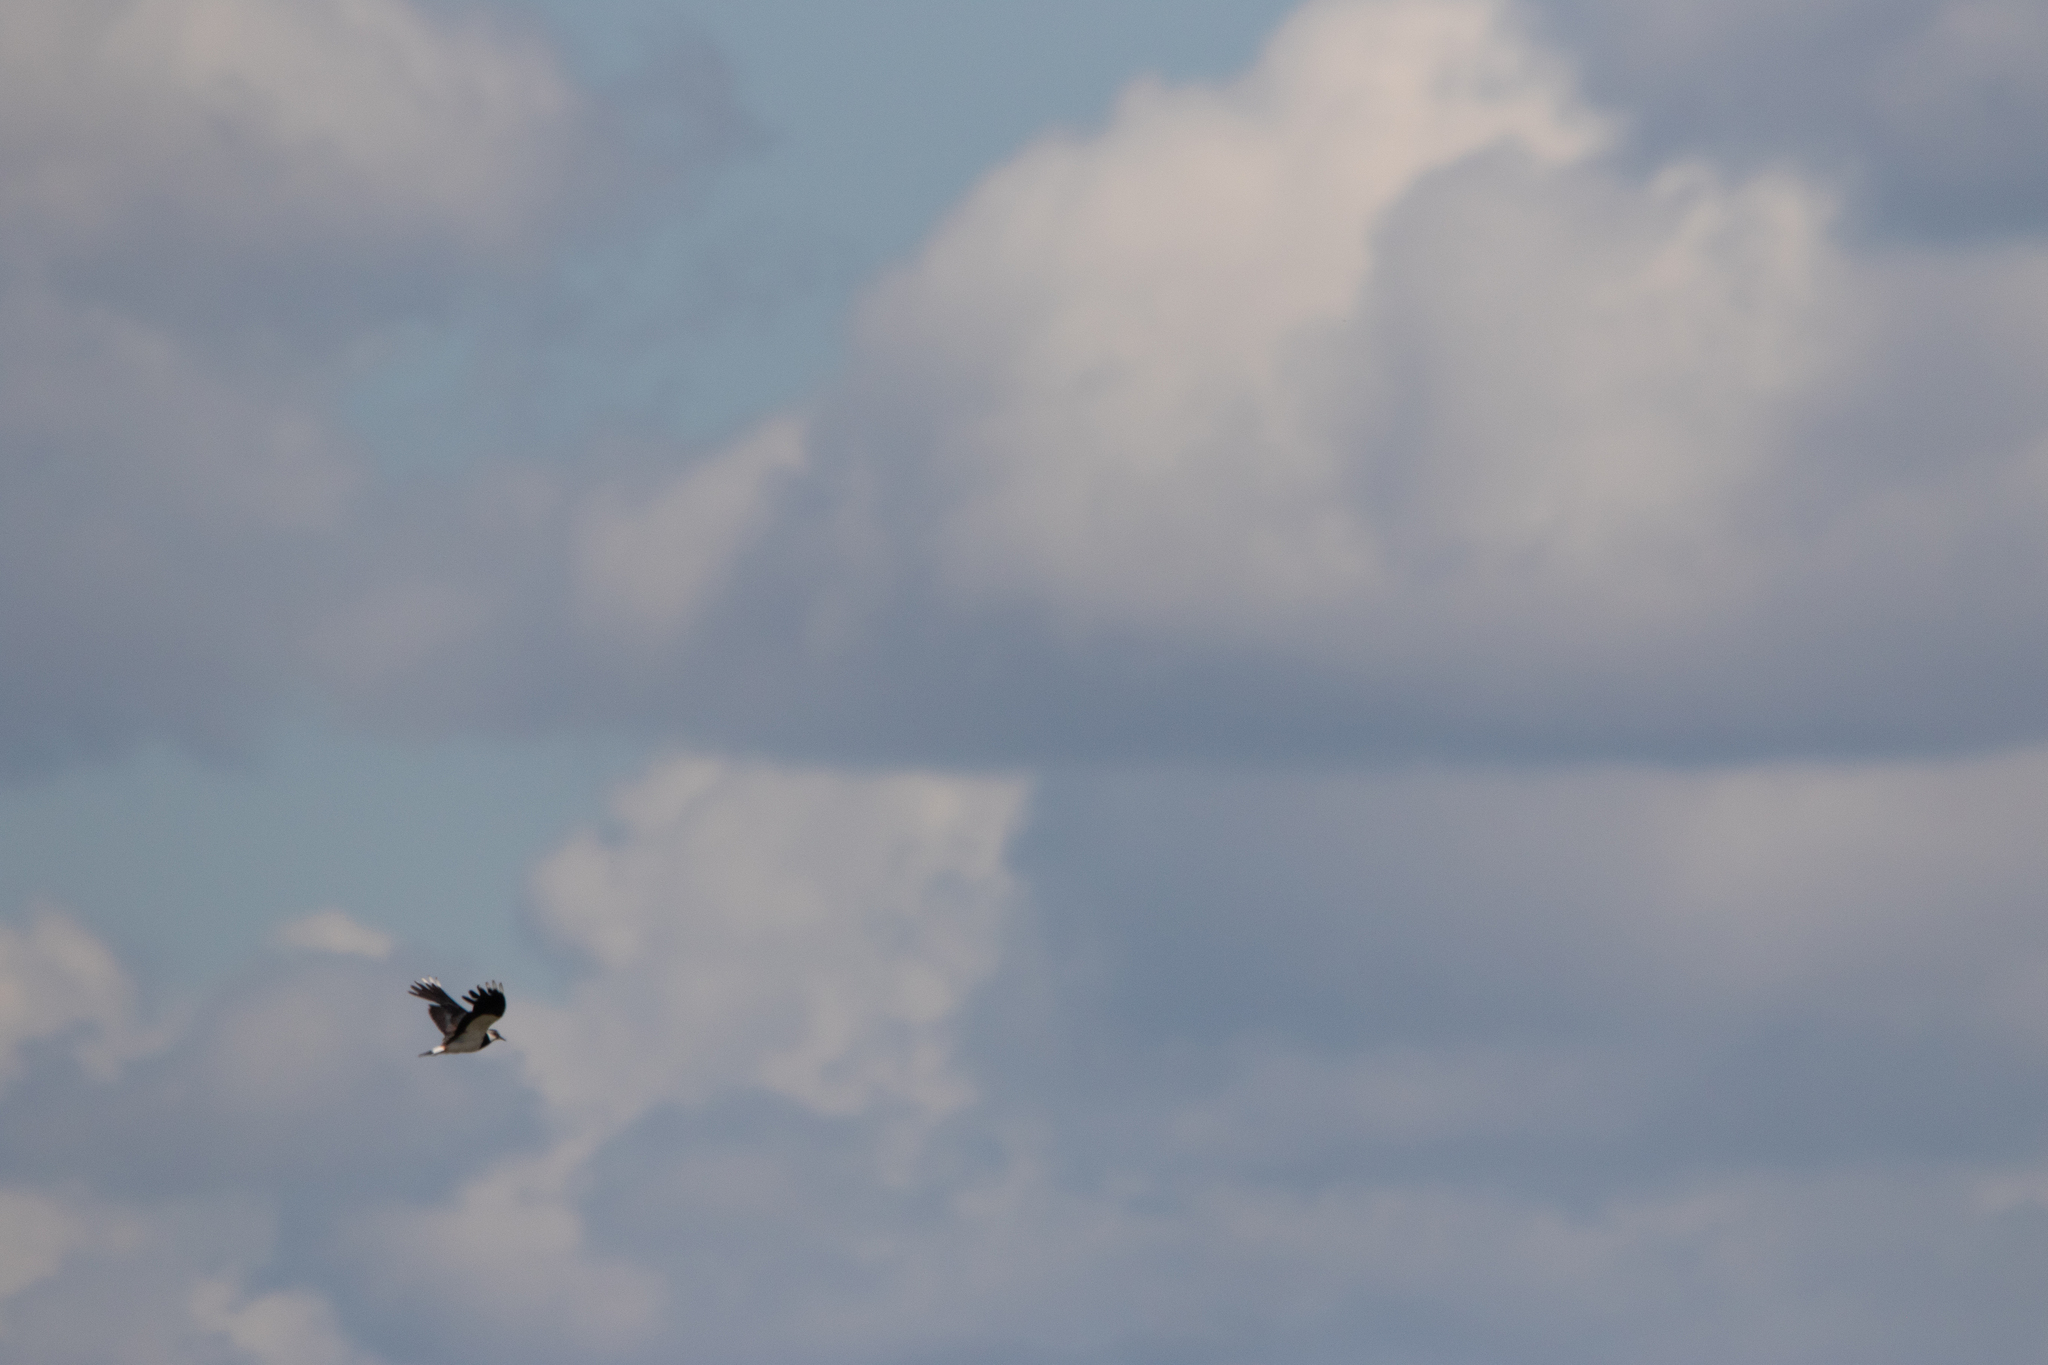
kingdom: Animalia
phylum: Chordata
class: Aves
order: Charadriiformes
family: Charadriidae
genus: Vanellus
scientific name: Vanellus vanellus
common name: Northern lapwing
